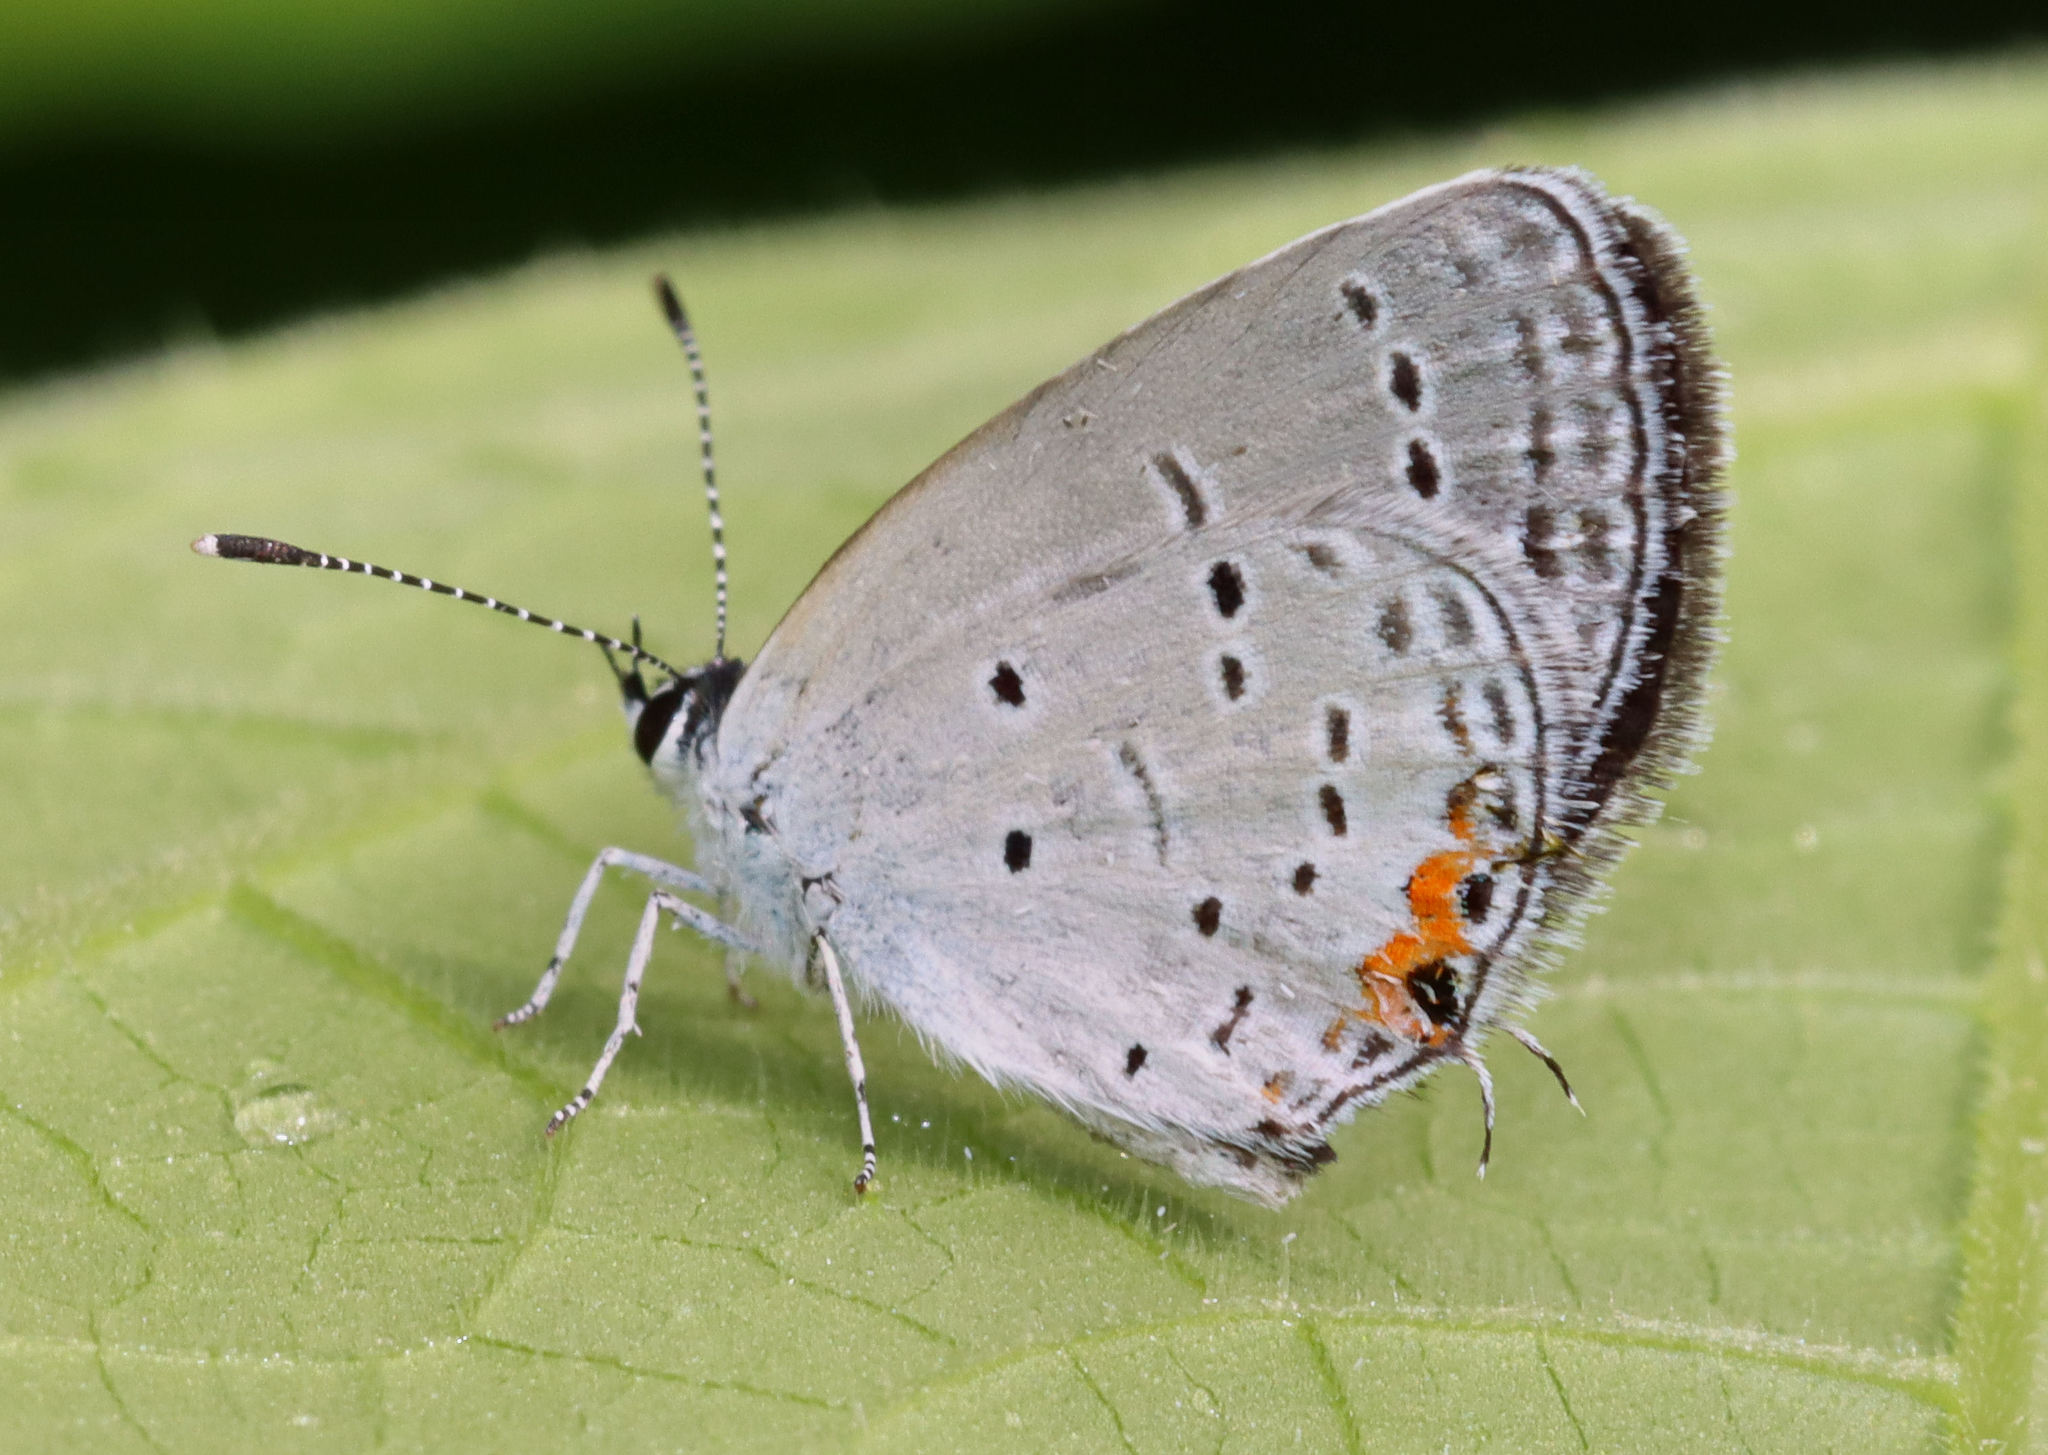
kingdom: Animalia
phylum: Arthropoda
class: Insecta
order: Lepidoptera
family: Lycaenidae
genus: Elkalyce
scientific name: Elkalyce comyntas
